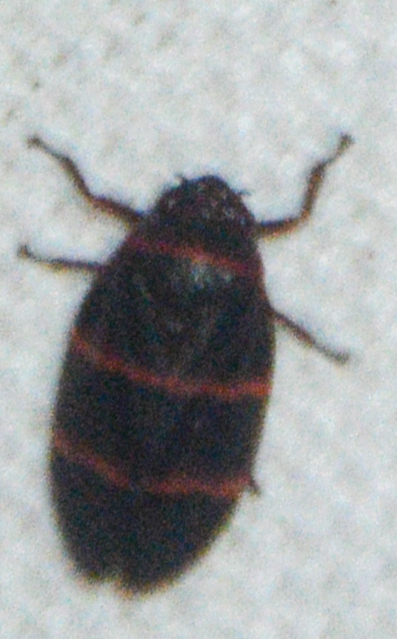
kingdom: Animalia
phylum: Arthropoda
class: Insecta
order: Hemiptera
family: Cercopidae
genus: Prosapia
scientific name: Prosapia bicincta
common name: Twolined spittlebug
